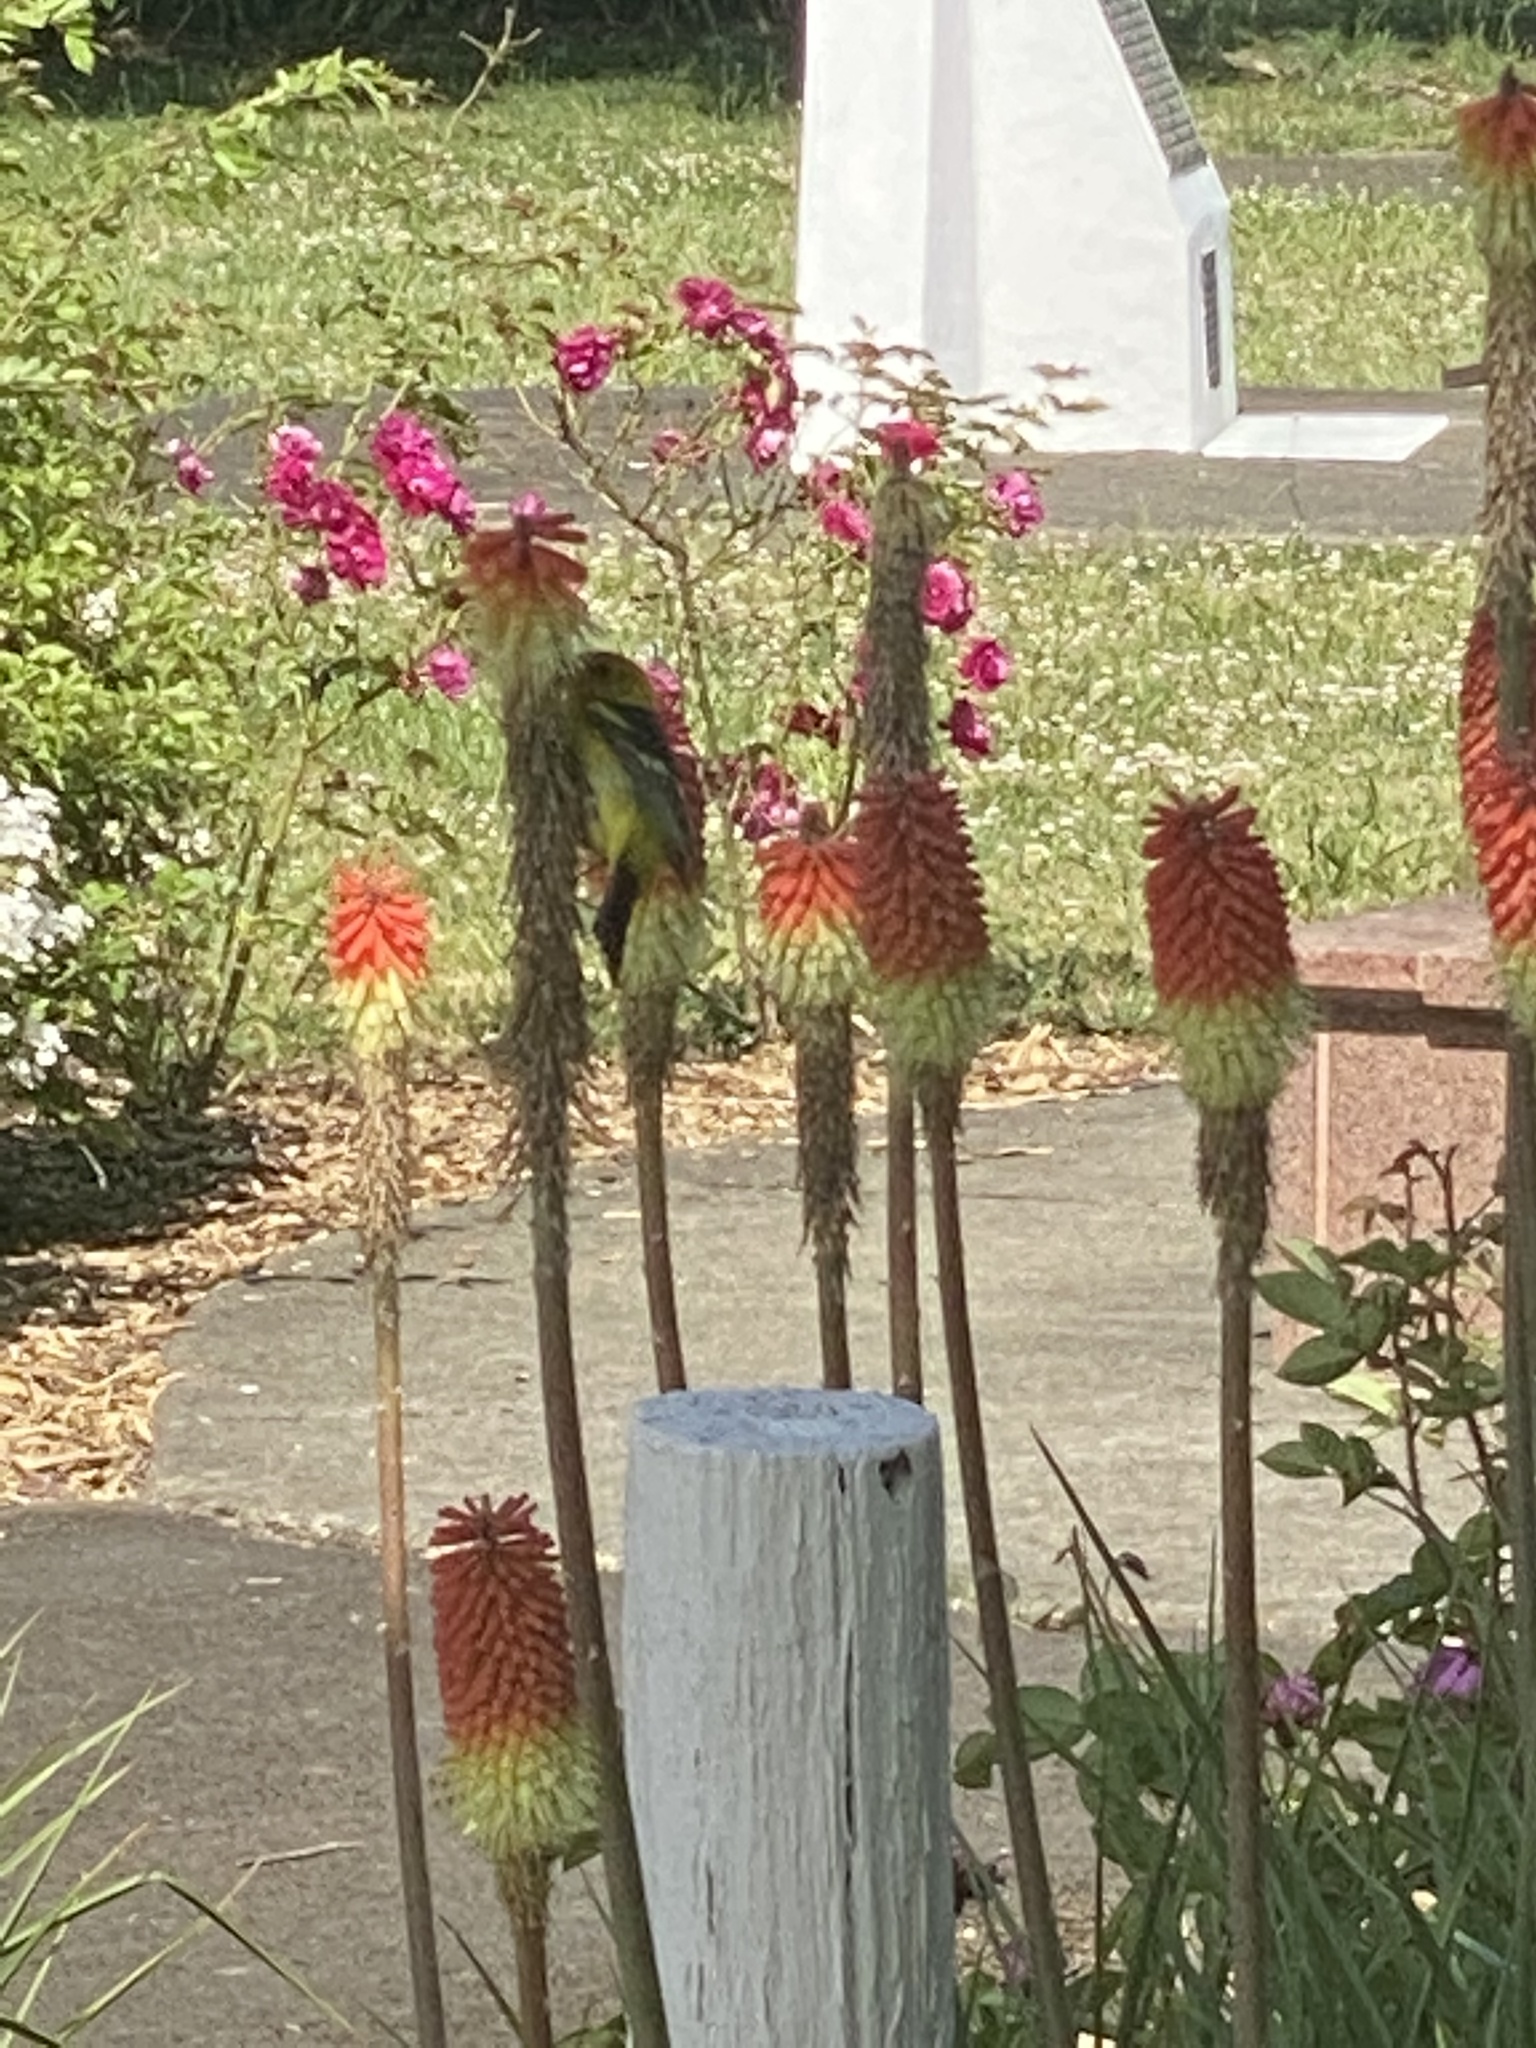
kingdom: Animalia
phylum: Chordata
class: Aves
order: Passeriformes
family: Cardinalidae
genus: Piranga
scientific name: Piranga ludoviciana
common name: Western tanager
